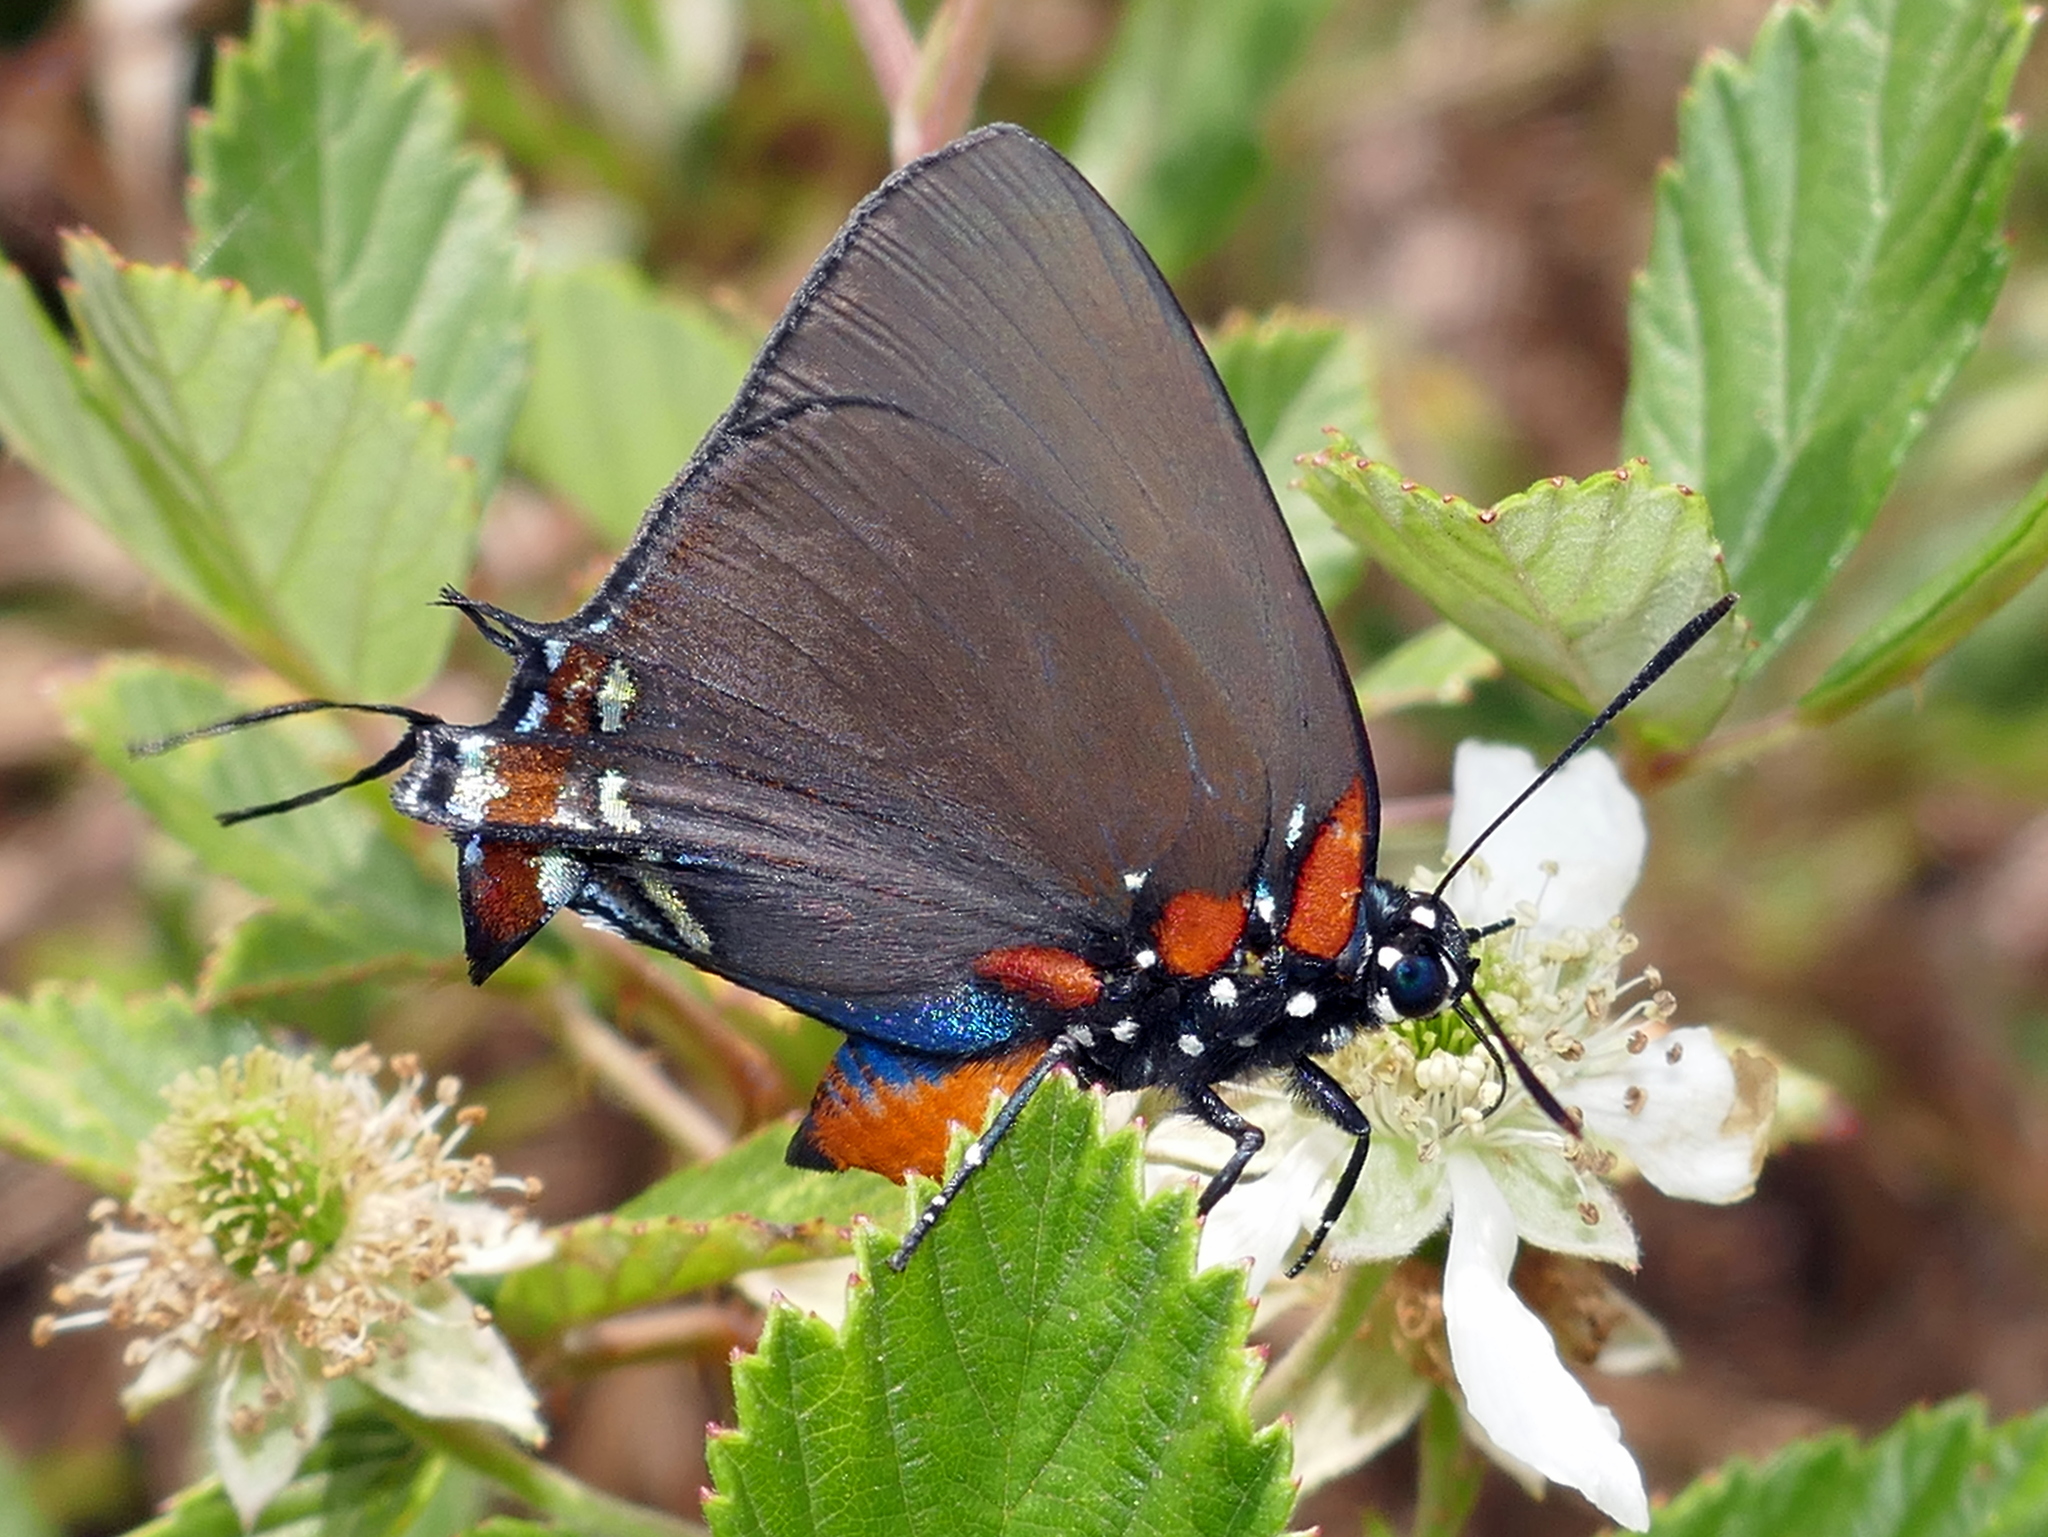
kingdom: Animalia
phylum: Arthropoda
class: Insecta
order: Lepidoptera
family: Lycaenidae
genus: Atlides
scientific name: Atlides halesus
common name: Great purple hairstreak
